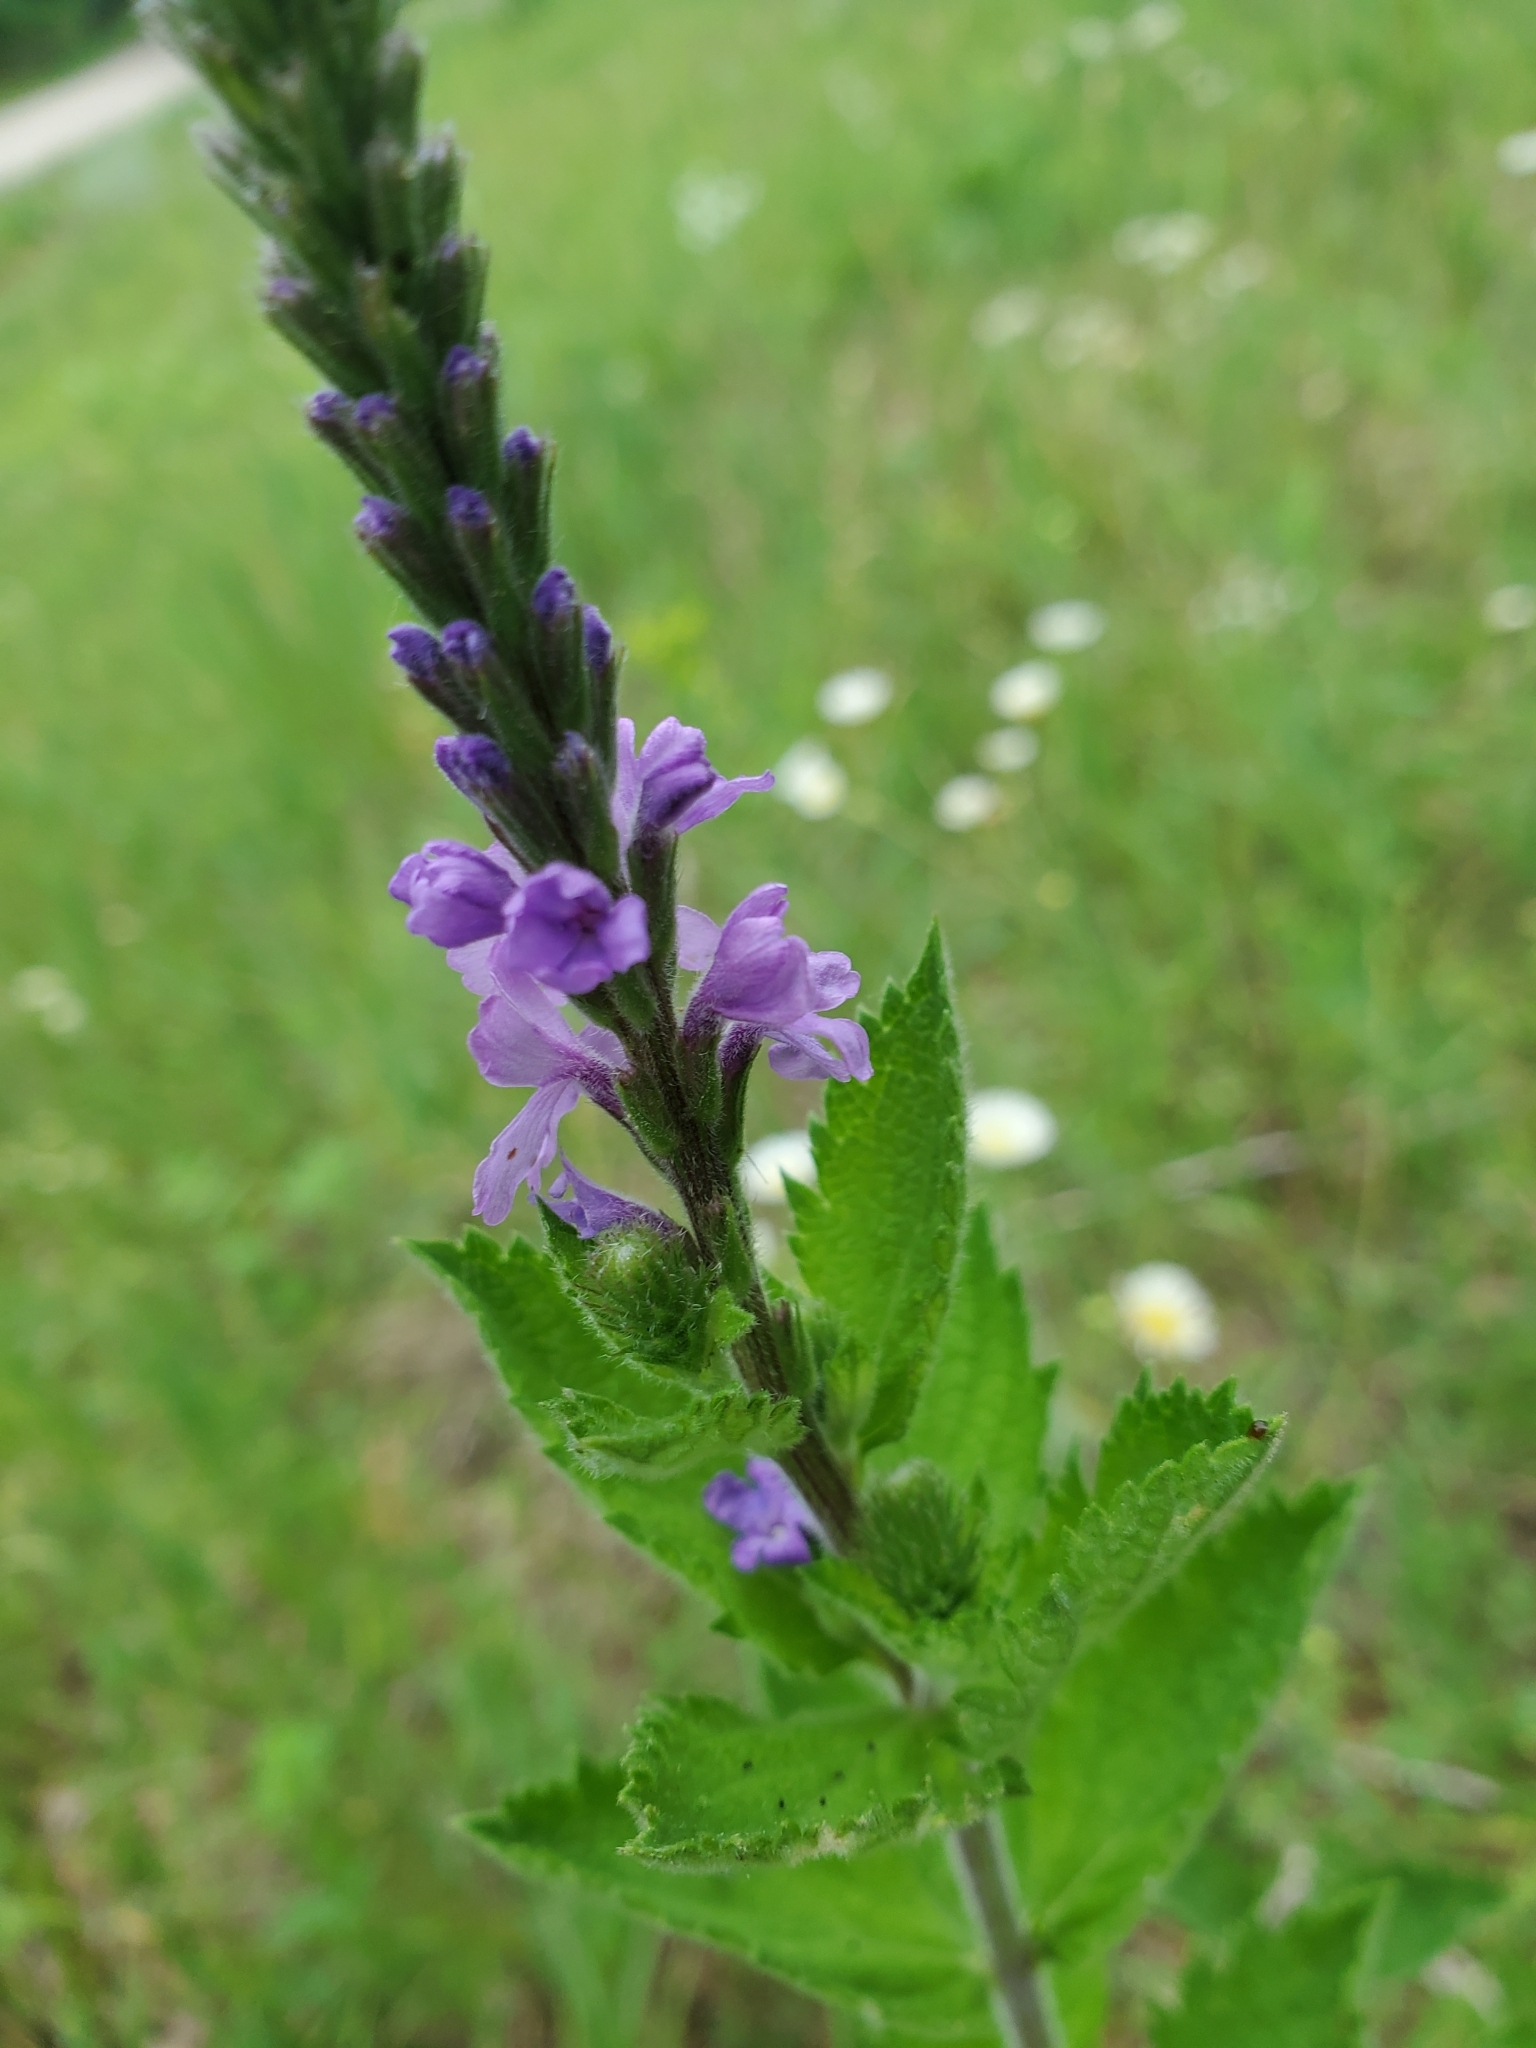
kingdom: Plantae
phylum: Tracheophyta
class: Magnoliopsida
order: Lamiales
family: Verbenaceae
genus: Verbena
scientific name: Verbena stricta
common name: Hoary vervain
